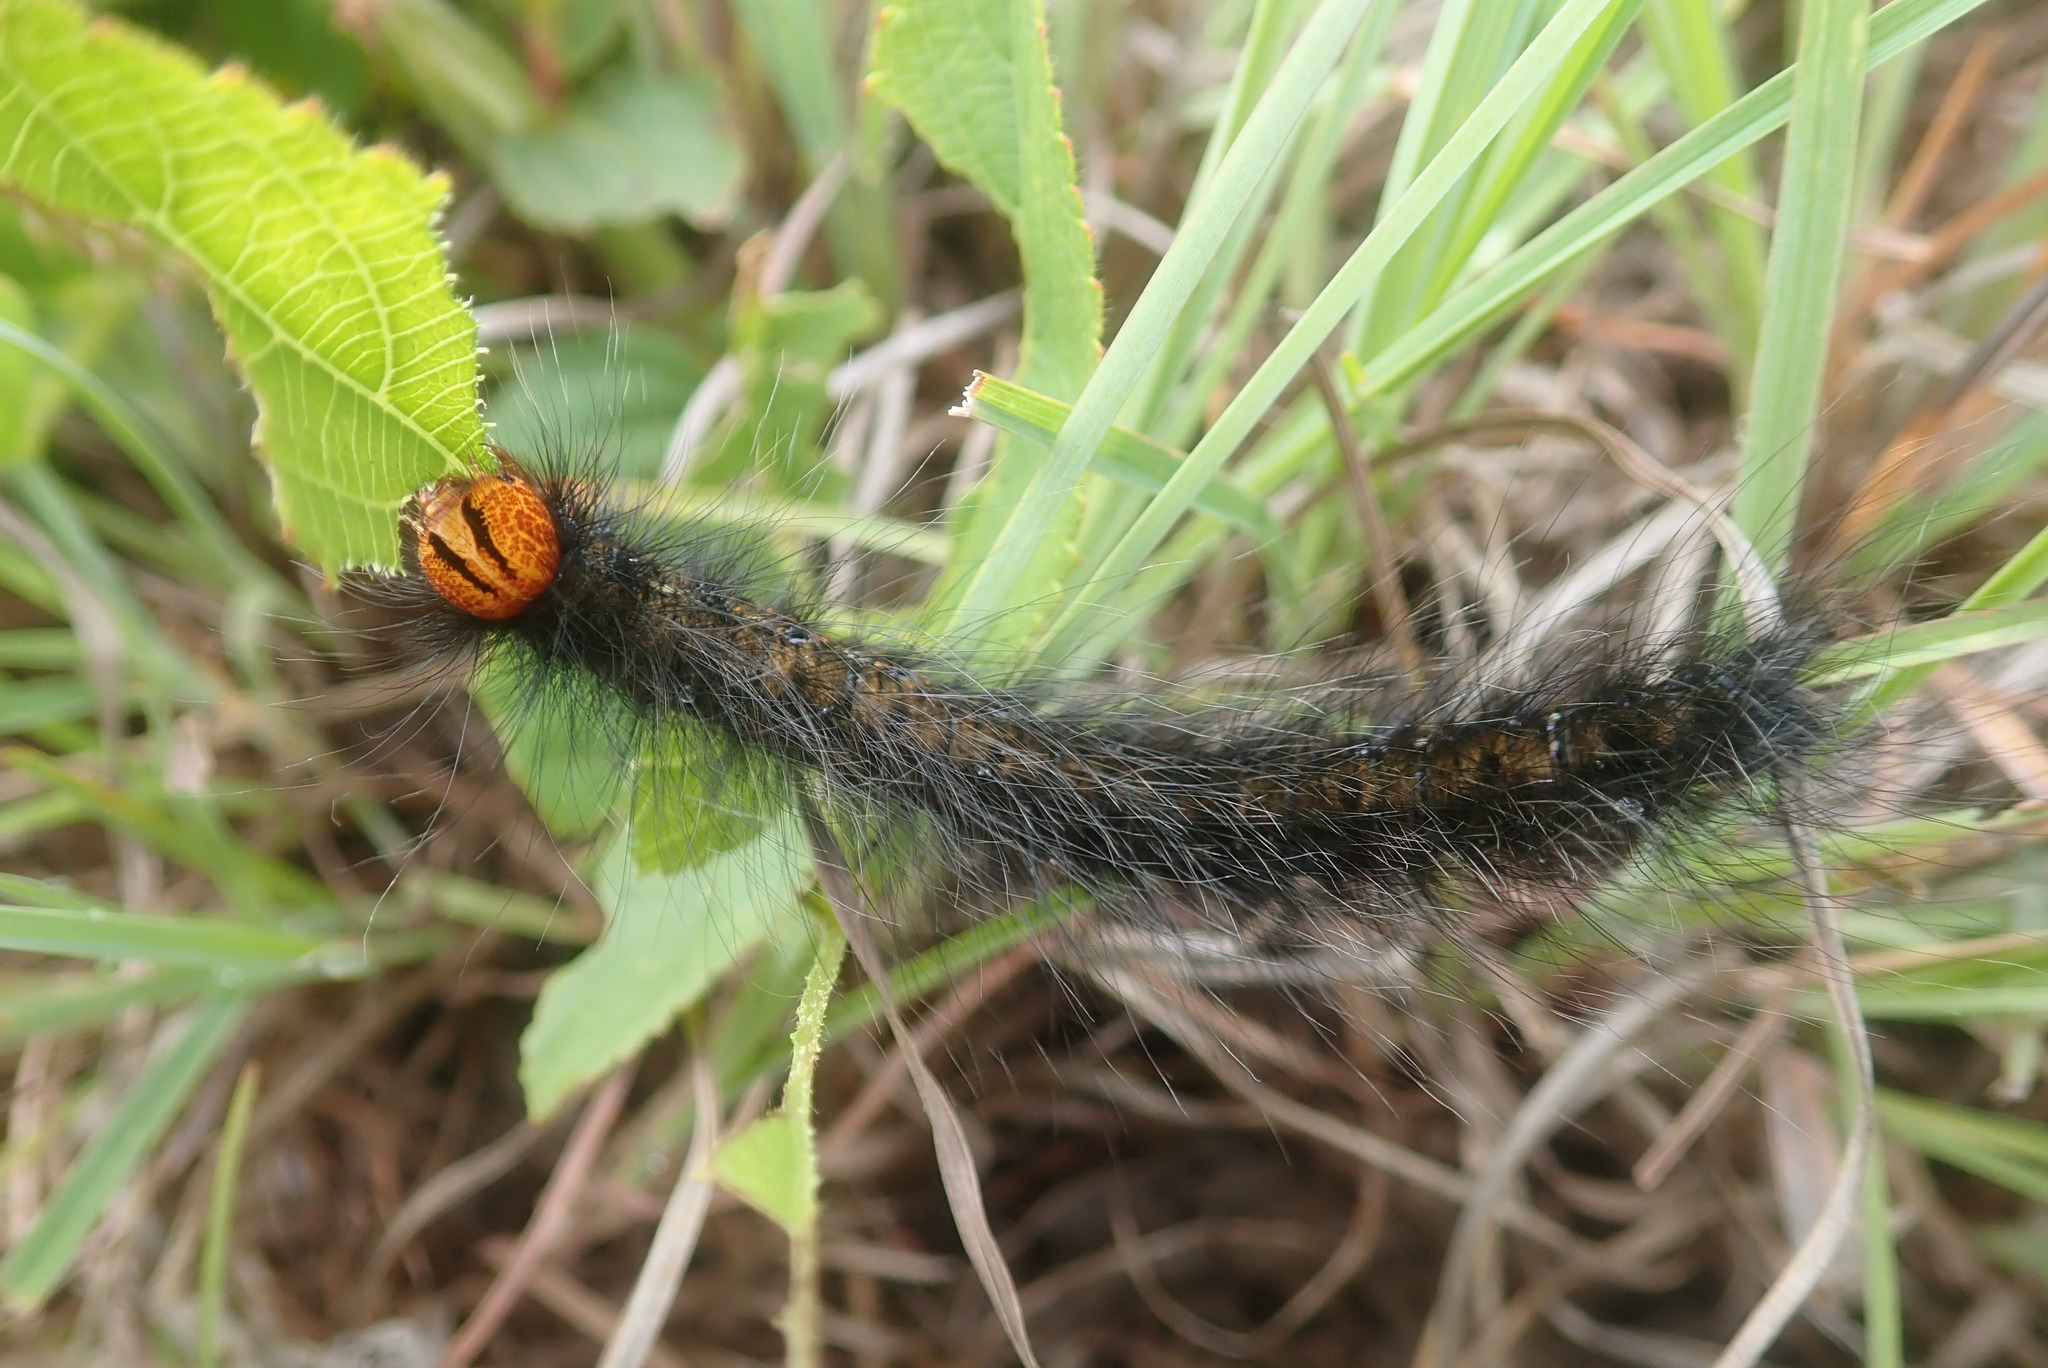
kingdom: Animalia
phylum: Arthropoda
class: Insecta
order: Lepidoptera
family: Lasiocampidae
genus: Mesocelis
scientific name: Mesocelis monticola
